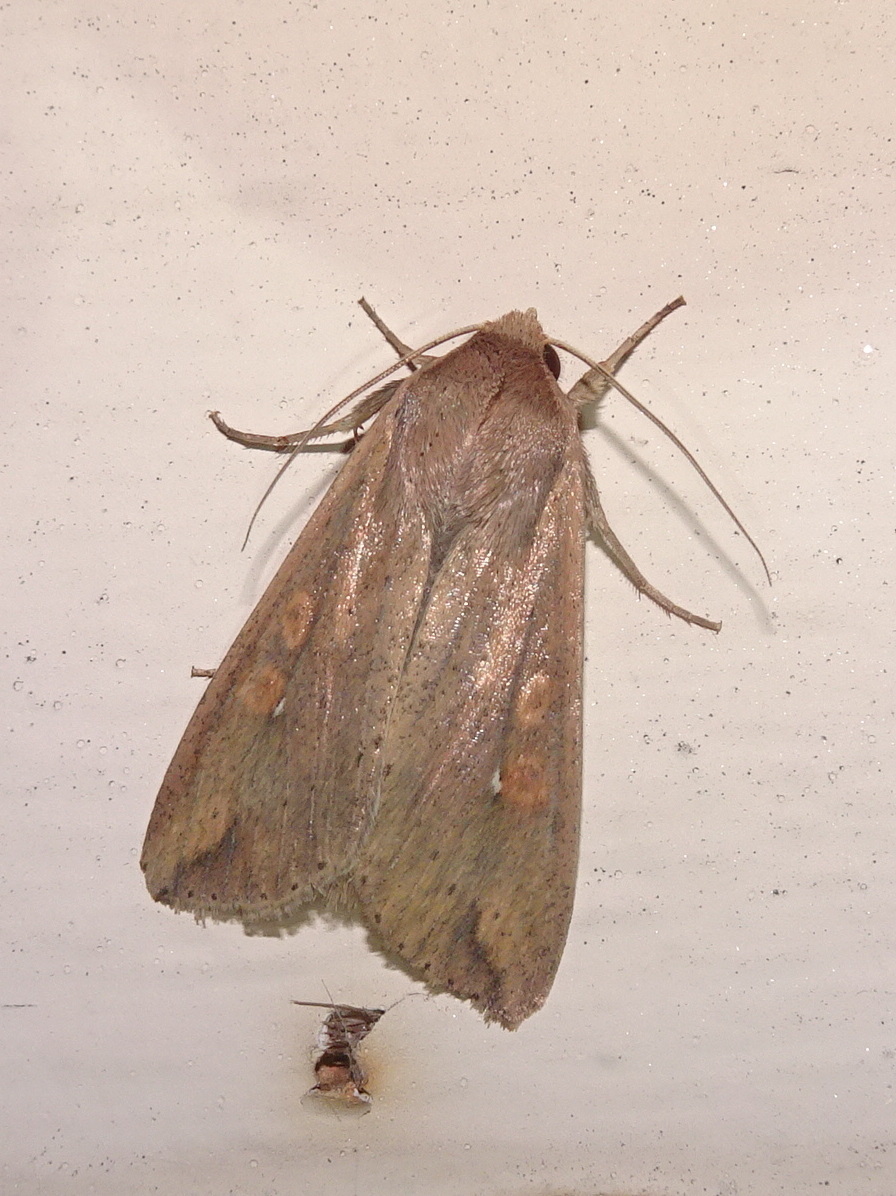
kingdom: Animalia
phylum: Arthropoda
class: Insecta
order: Lepidoptera
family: Noctuidae
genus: Mythimna
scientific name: Mythimna unipuncta
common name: White-speck
